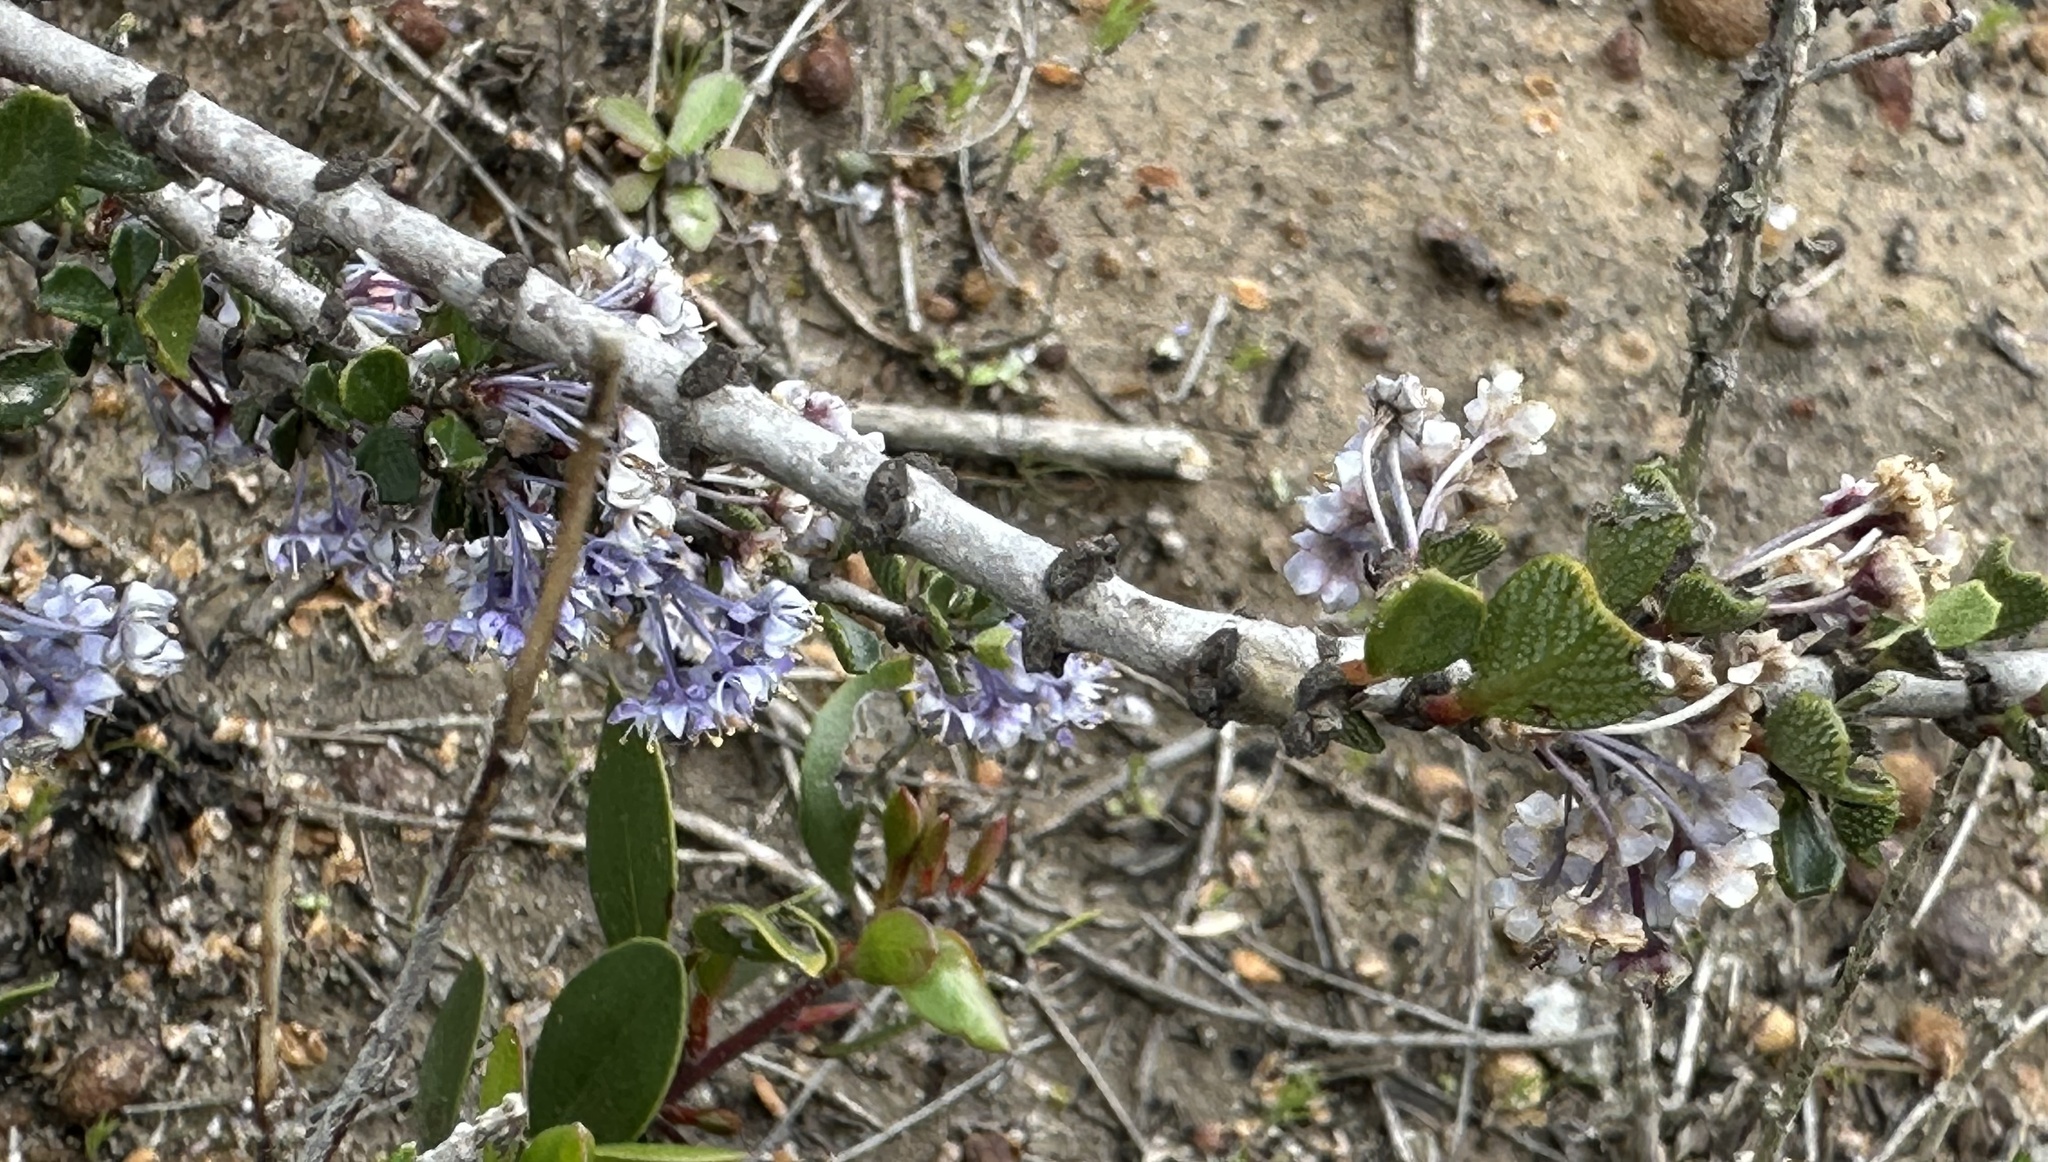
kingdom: Plantae
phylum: Tracheophyta
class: Magnoliopsida
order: Rosales
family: Rhamnaceae
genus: Ceanothus
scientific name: Ceanothus cuneatus
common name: Cuneate ceanothus
